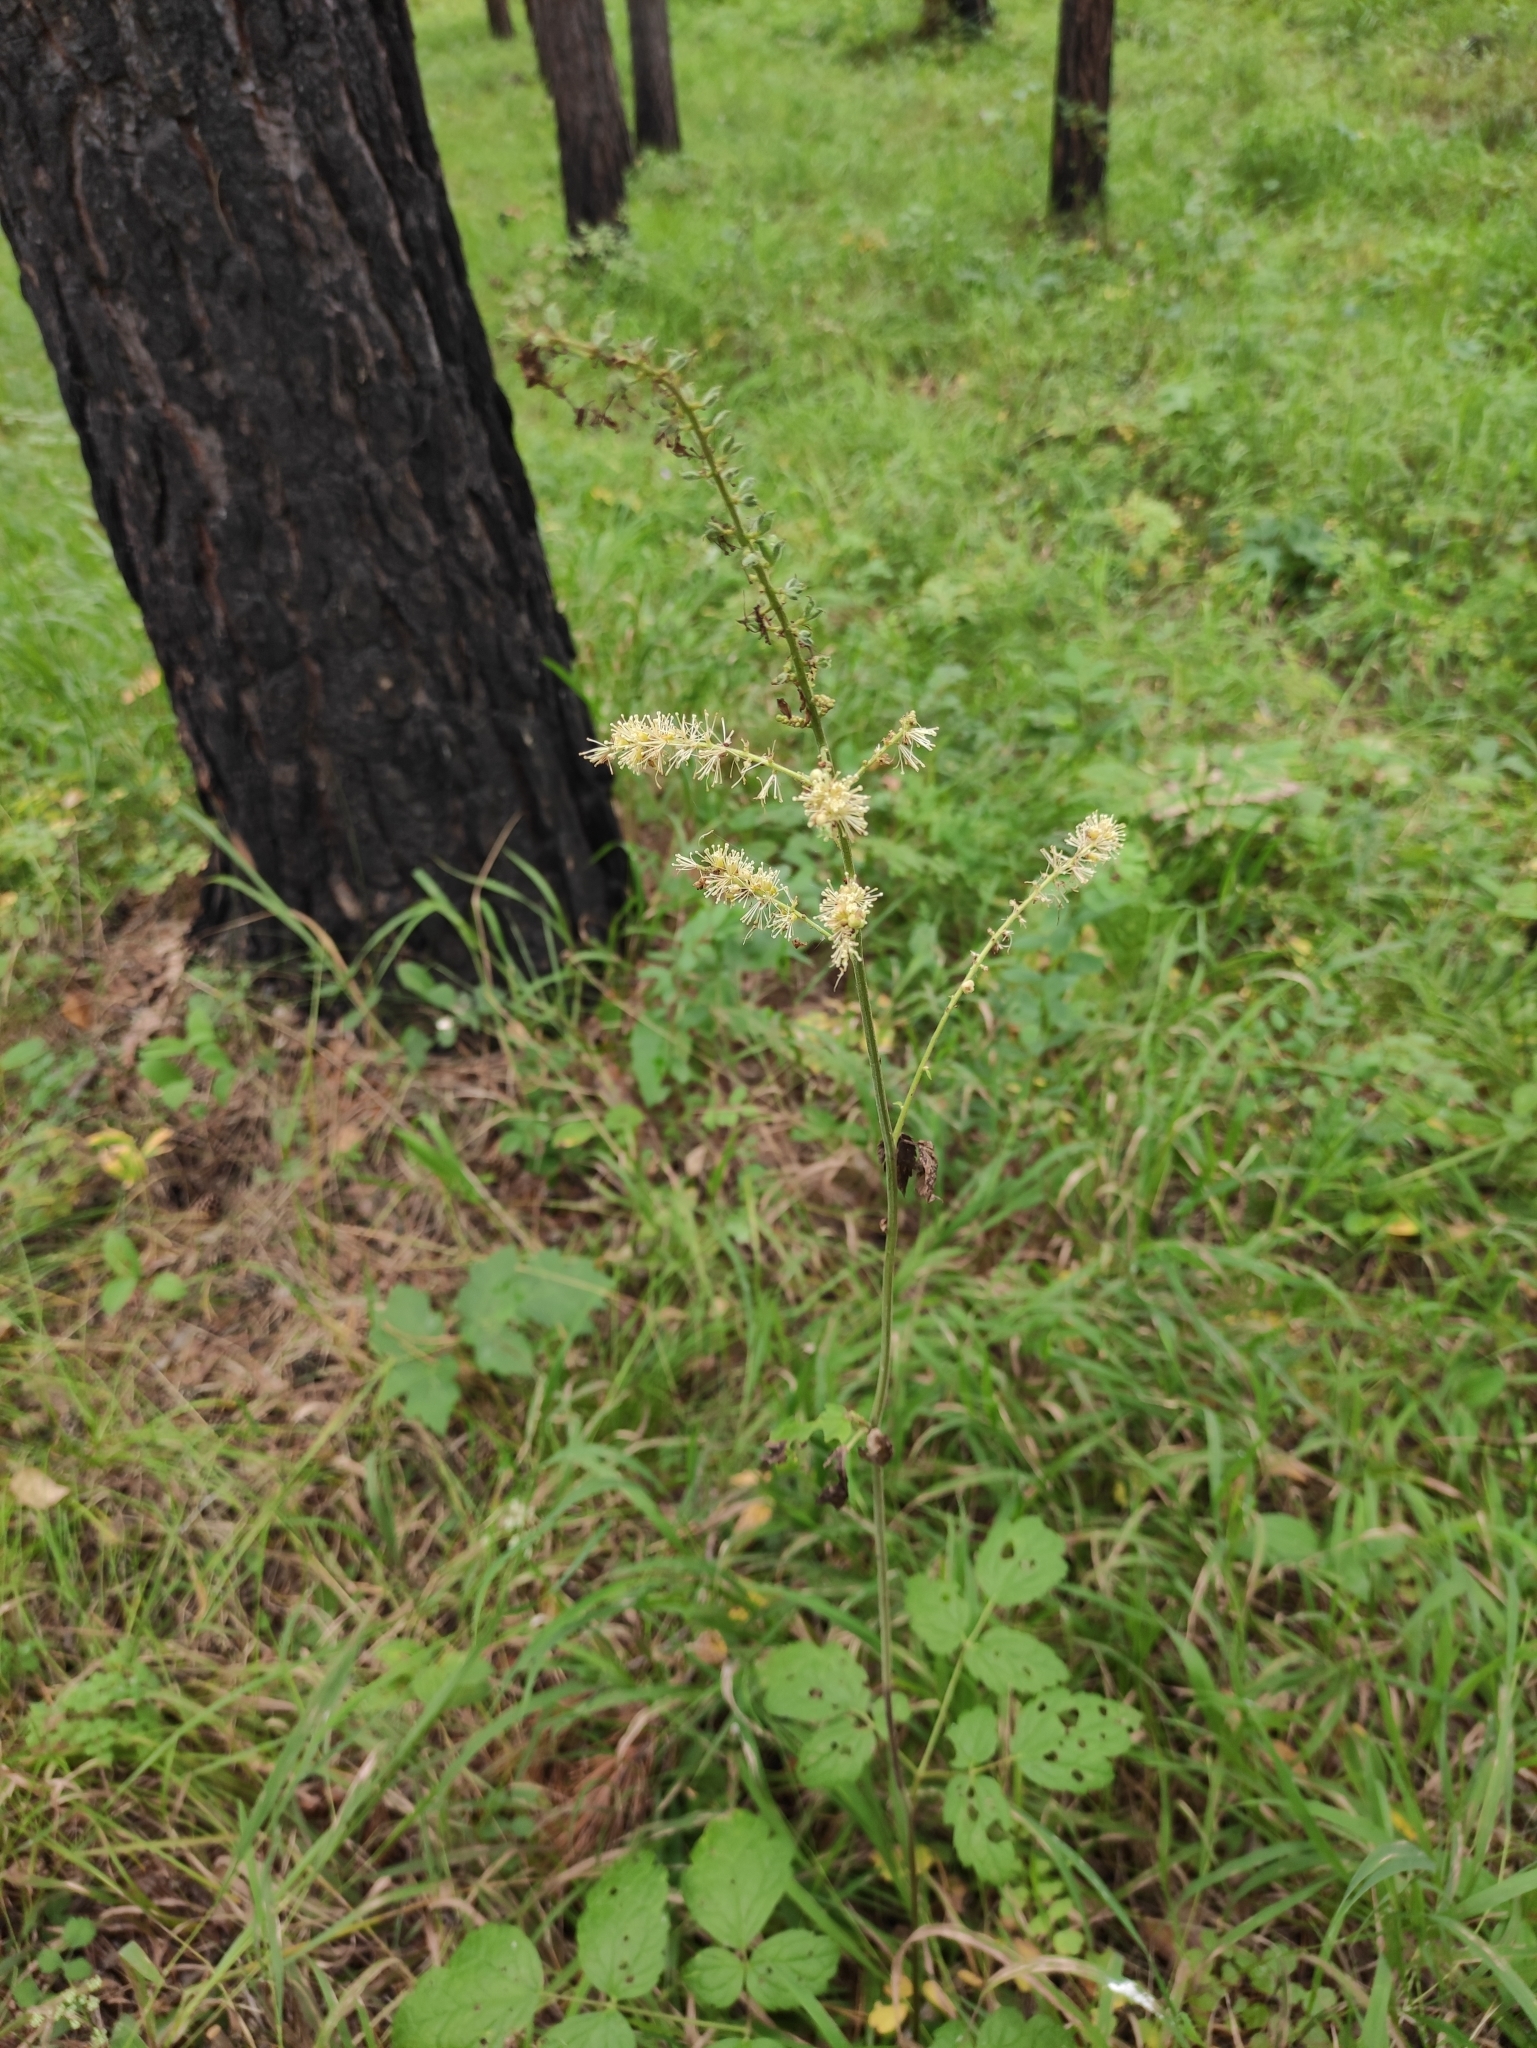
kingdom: Plantae
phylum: Tracheophyta
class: Magnoliopsida
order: Ranunculales
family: Ranunculaceae
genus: Actaea
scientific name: Actaea cimicifuga
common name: Chinese cimicifuga
